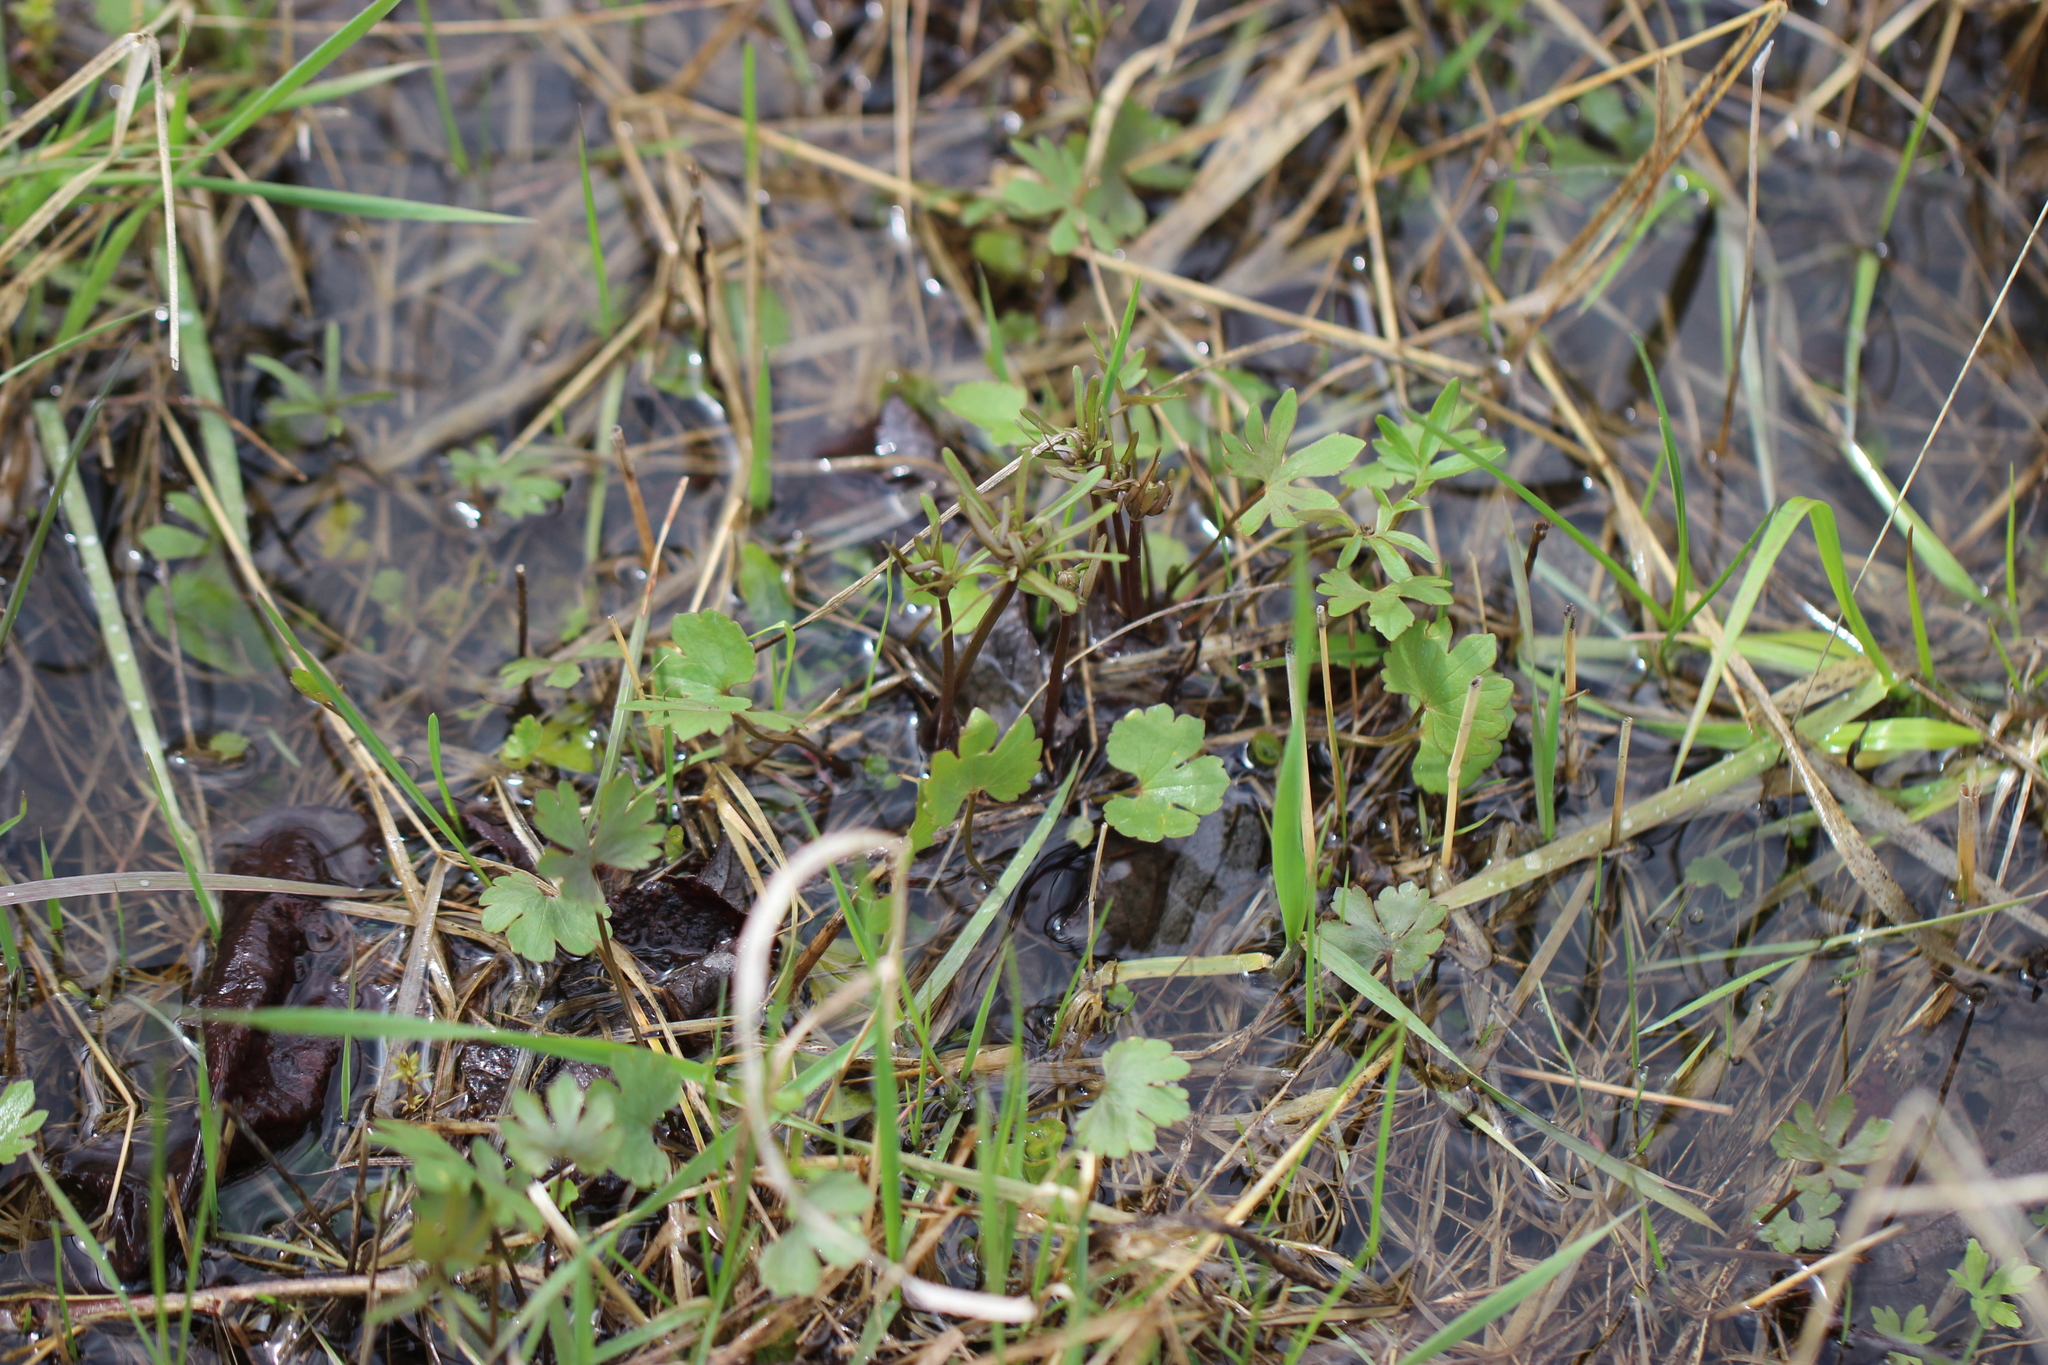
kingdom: Plantae
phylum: Tracheophyta
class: Magnoliopsida
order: Ranunculales
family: Ranunculaceae
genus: Ranunculus
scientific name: Ranunculus auricomus
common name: Goldilocks buttercup
